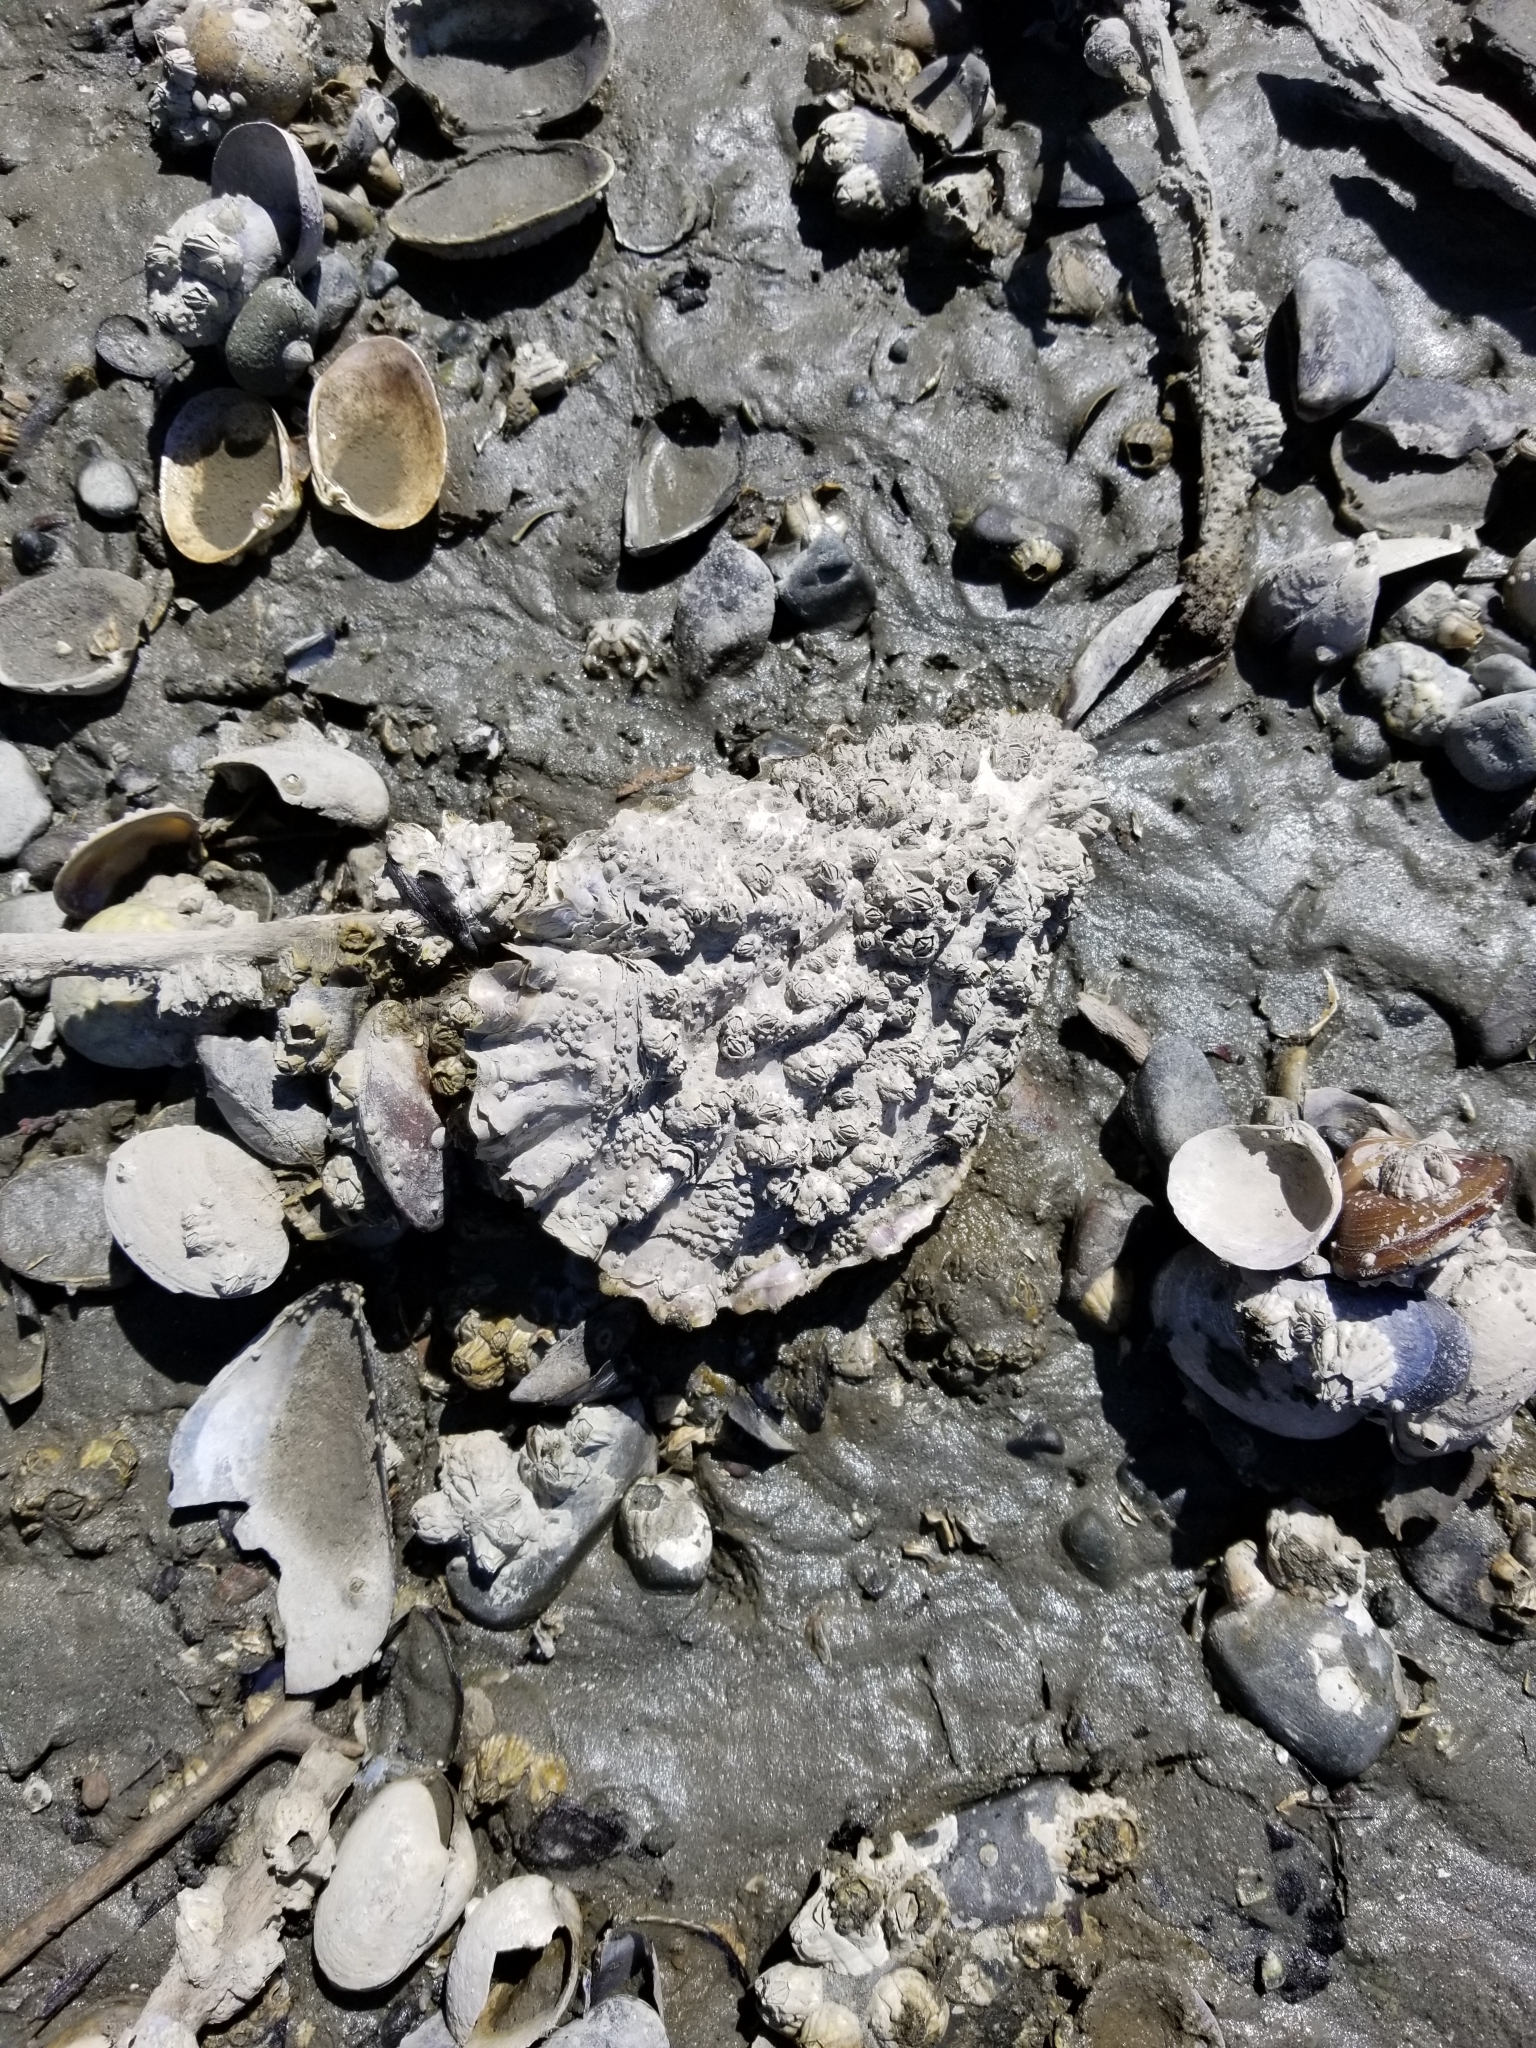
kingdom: Animalia
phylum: Mollusca
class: Bivalvia
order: Ostreida
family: Ostreidae
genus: Magallana
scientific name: Magallana gigas
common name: Pacific oyster
